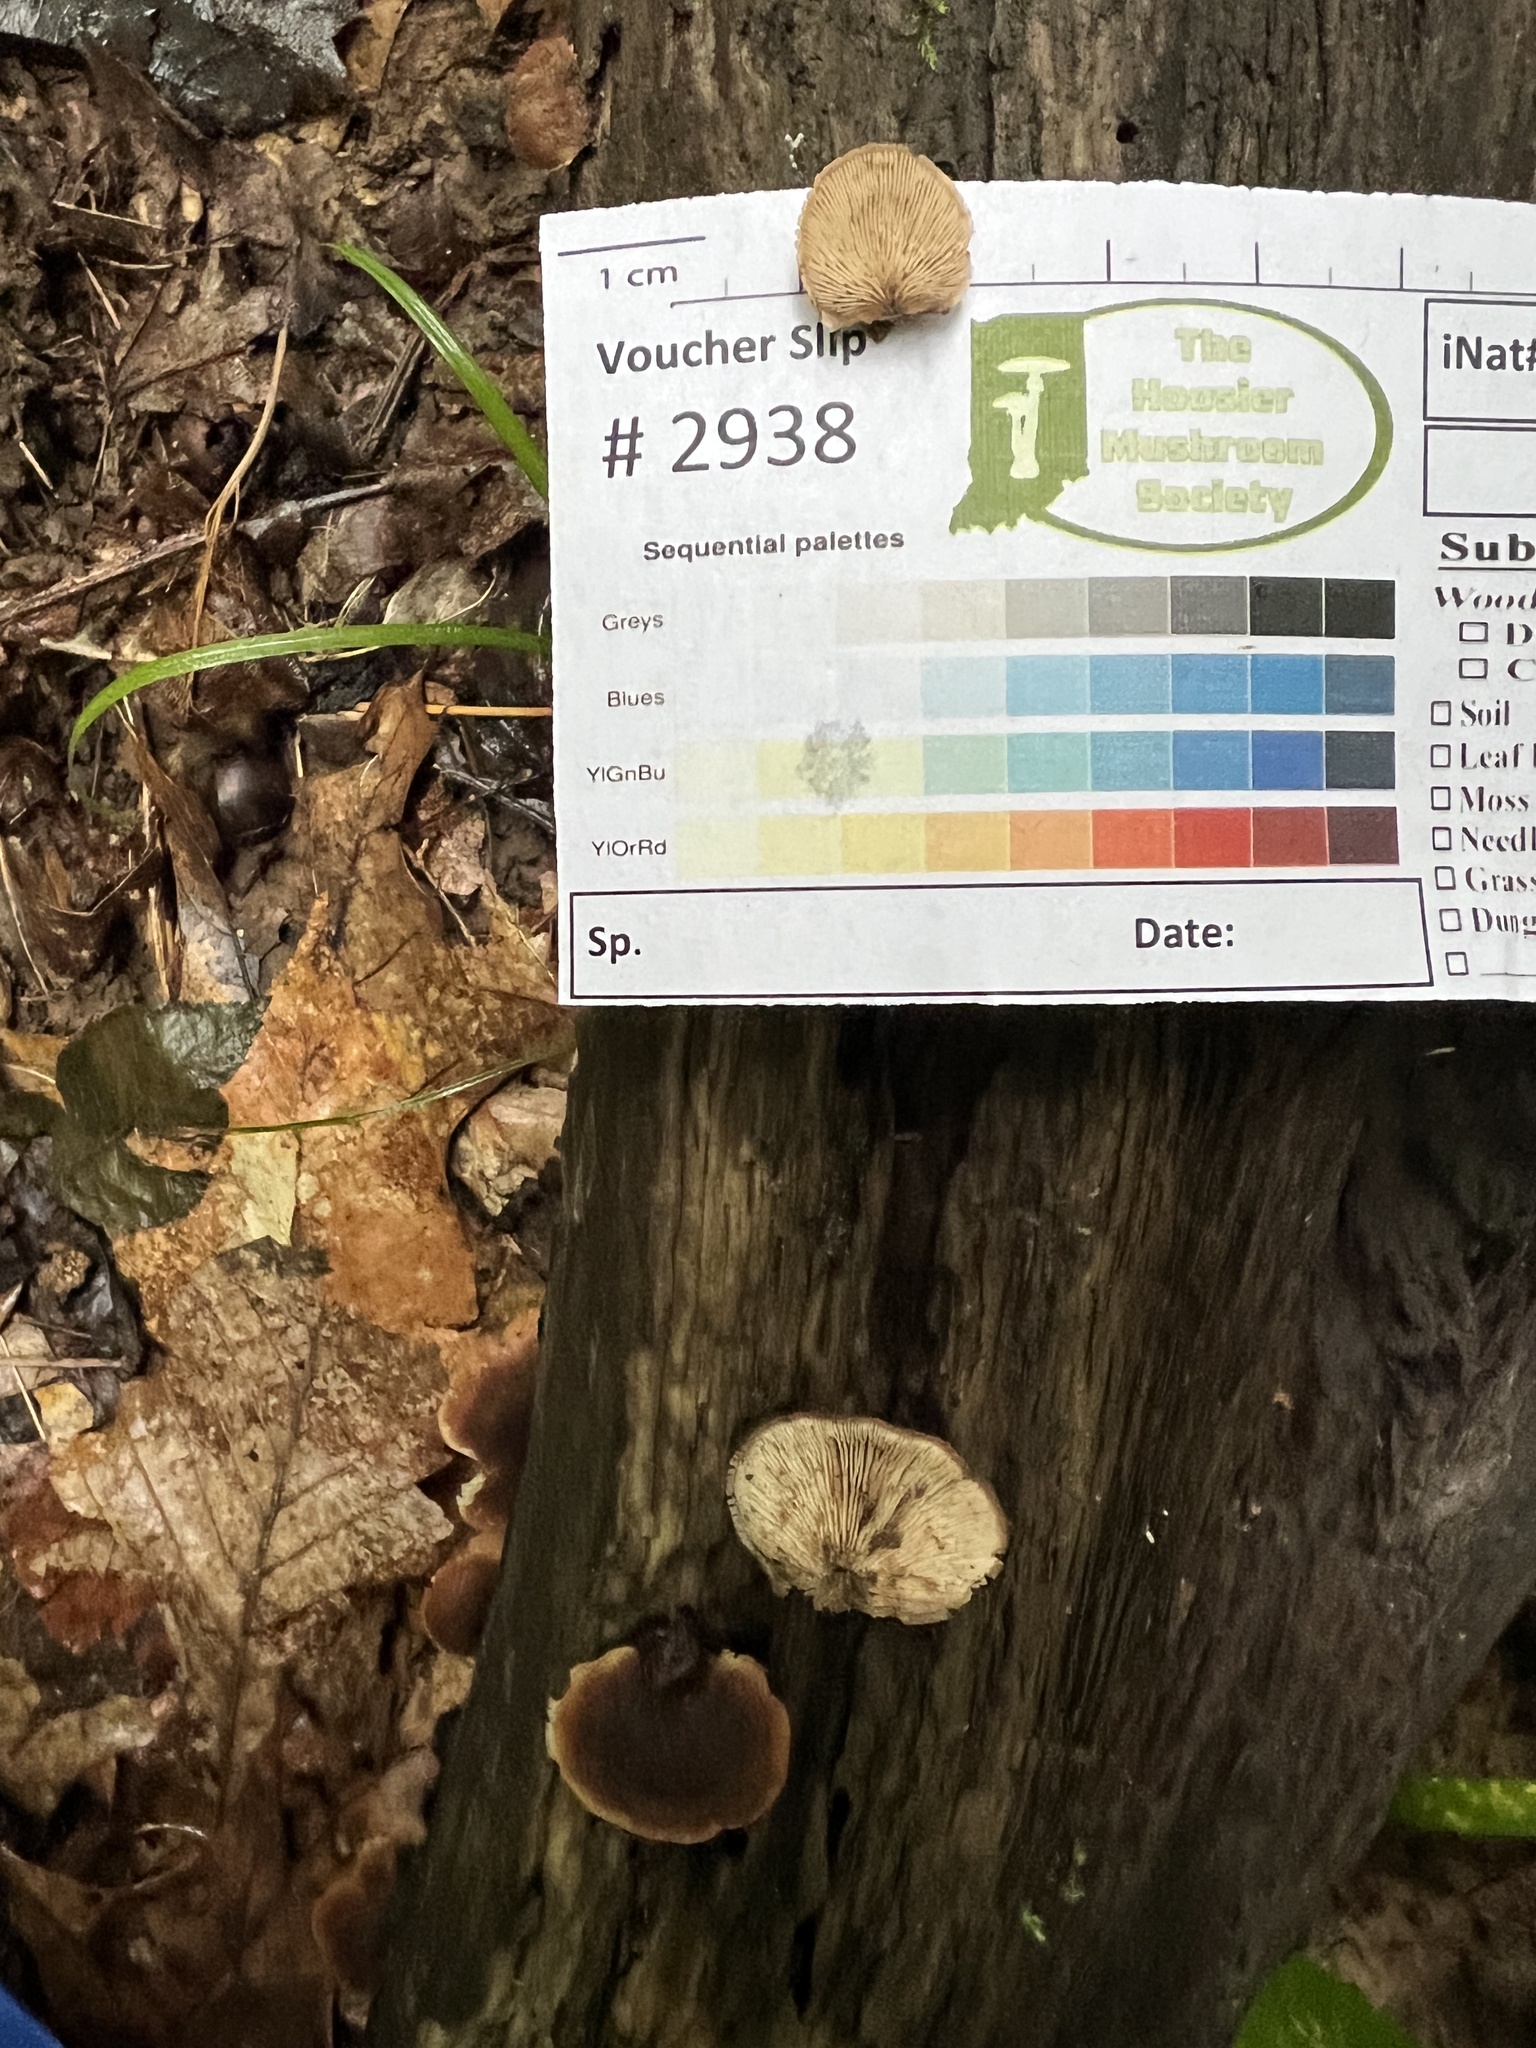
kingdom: Fungi
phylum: Basidiomycota
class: Agaricomycetes
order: Russulales
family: Auriscalpiaceae
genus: Lentinellus
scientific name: Lentinellus ursinus
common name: Bear lentinus
